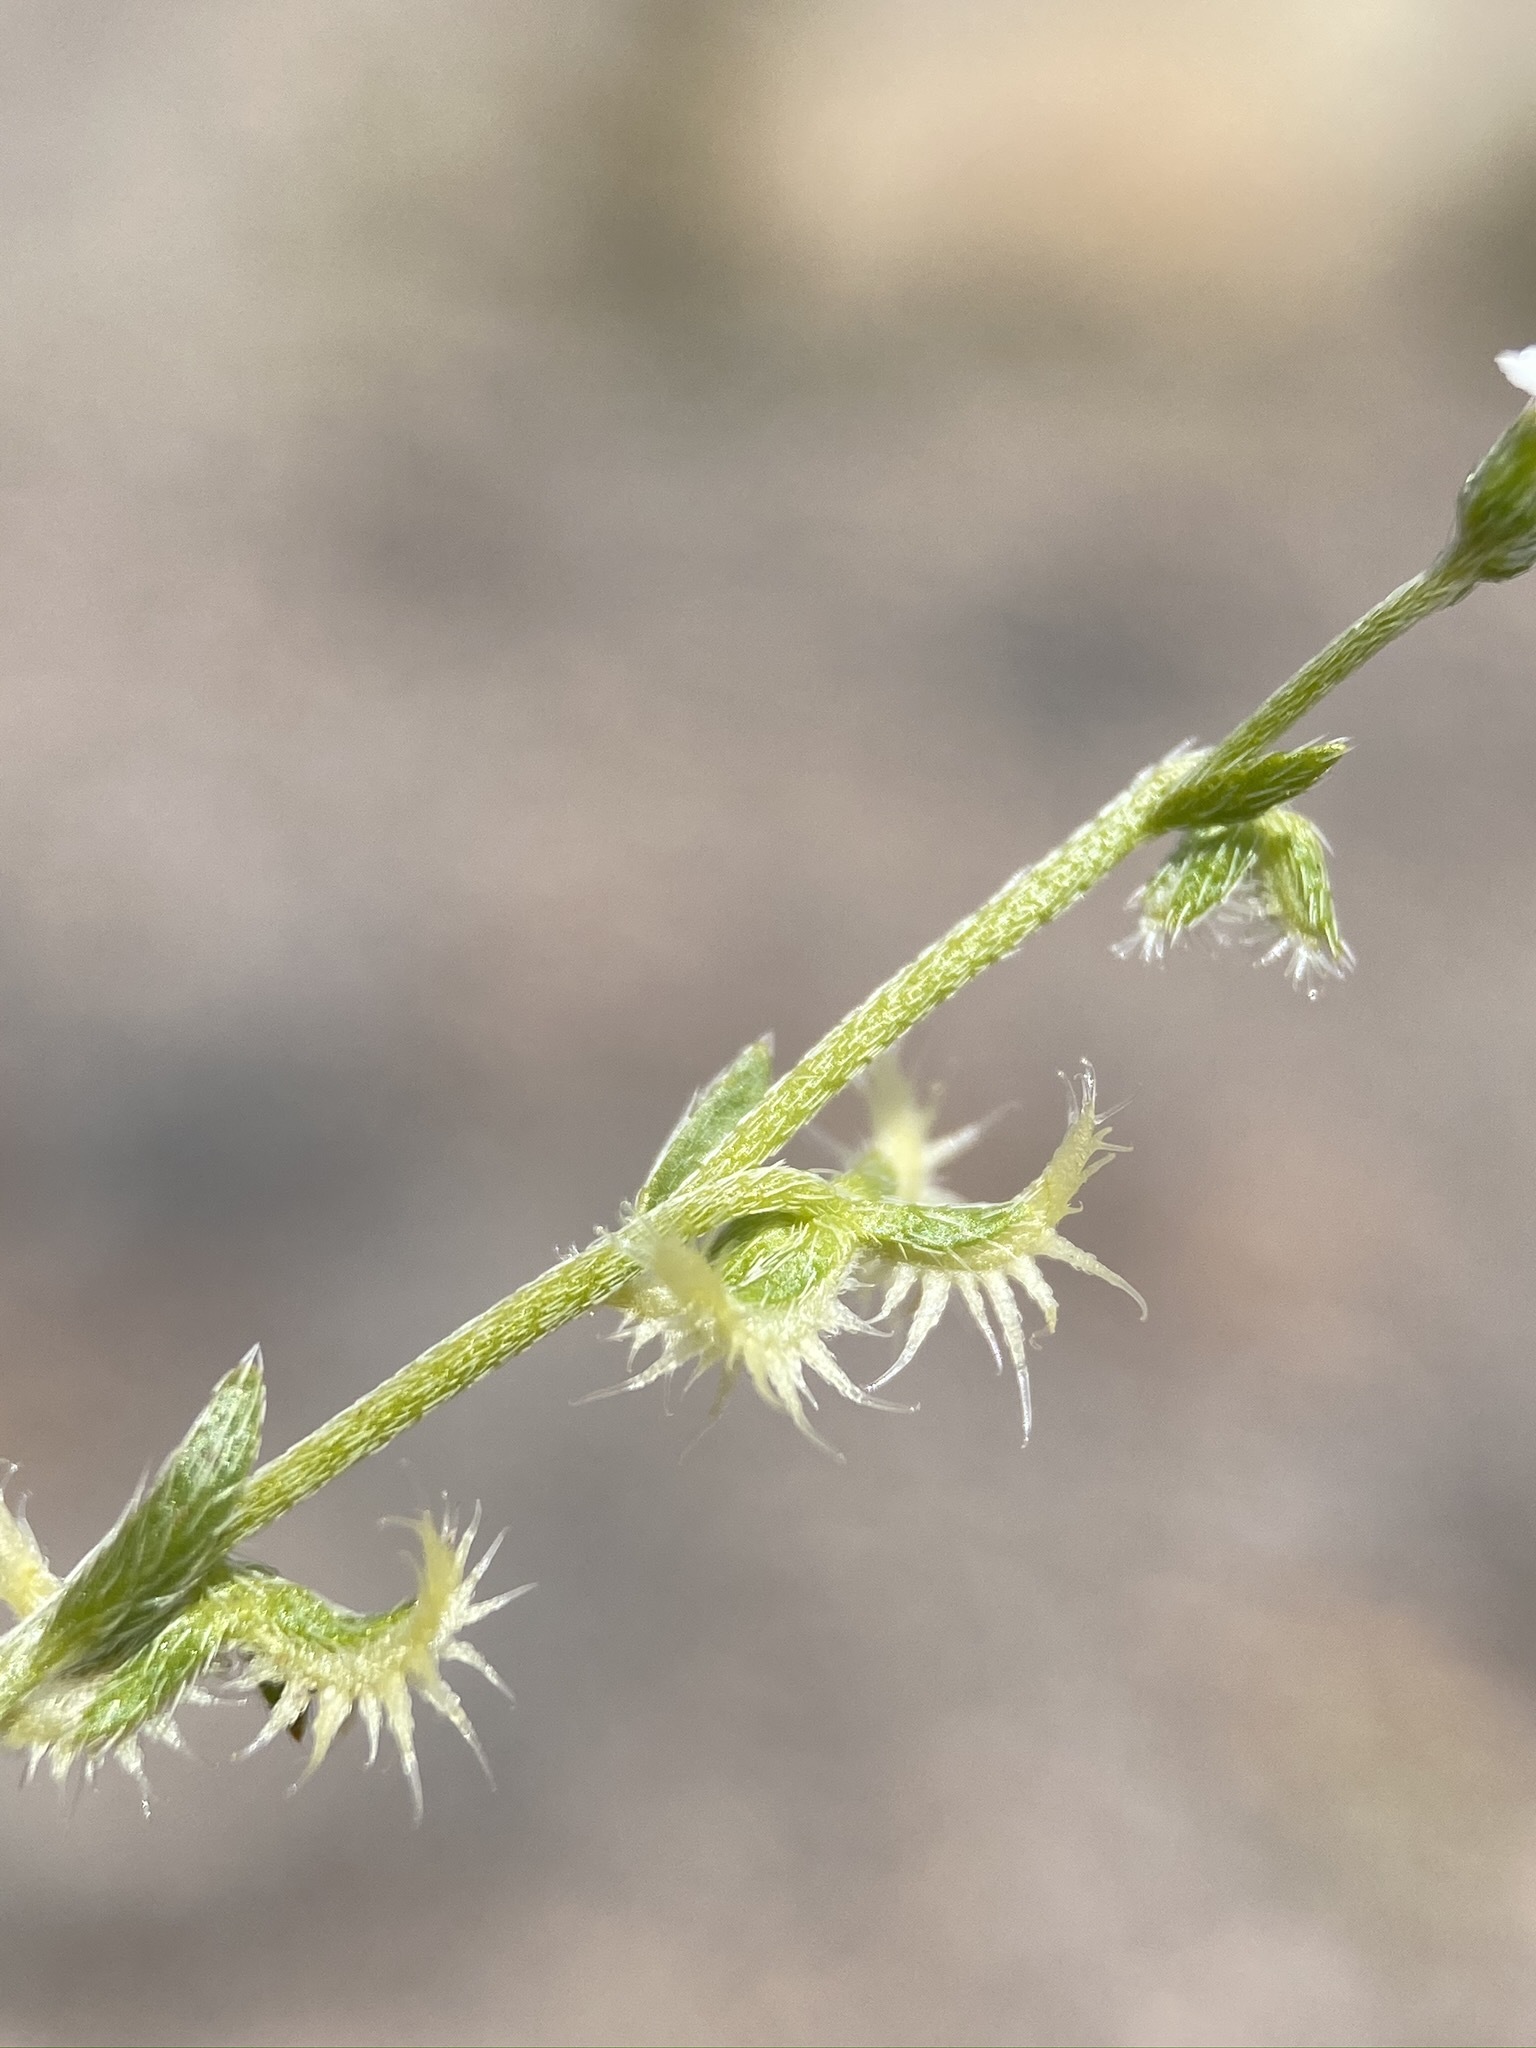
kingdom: Plantae
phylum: Tracheophyta
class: Magnoliopsida
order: Boraginales
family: Boraginaceae
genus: Pectocarya
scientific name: Pectocarya recurvata
